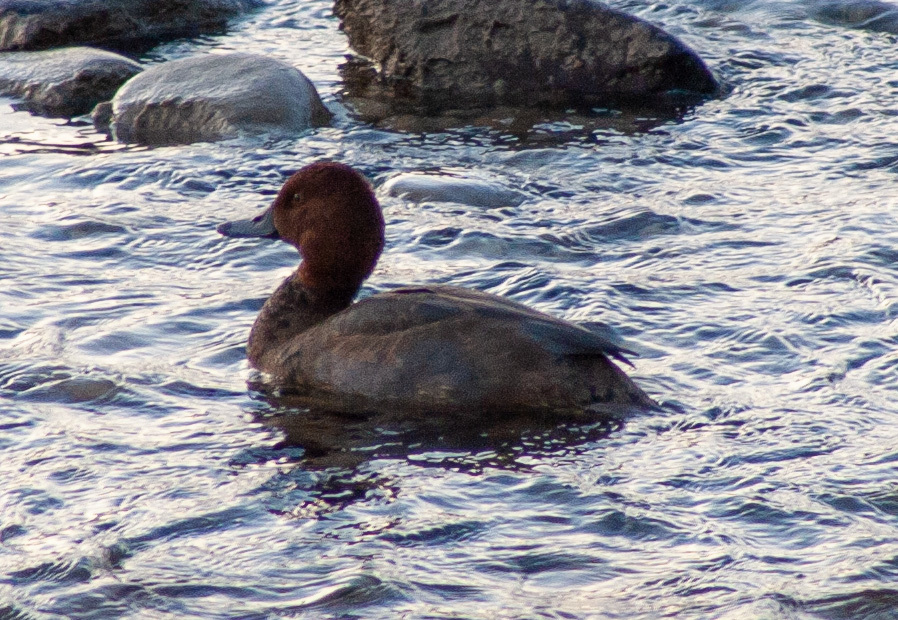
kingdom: Animalia
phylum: Chordata
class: Aves
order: Anseriformes
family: Anatidae
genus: Aythya
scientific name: Aythya americana
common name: Redhead
